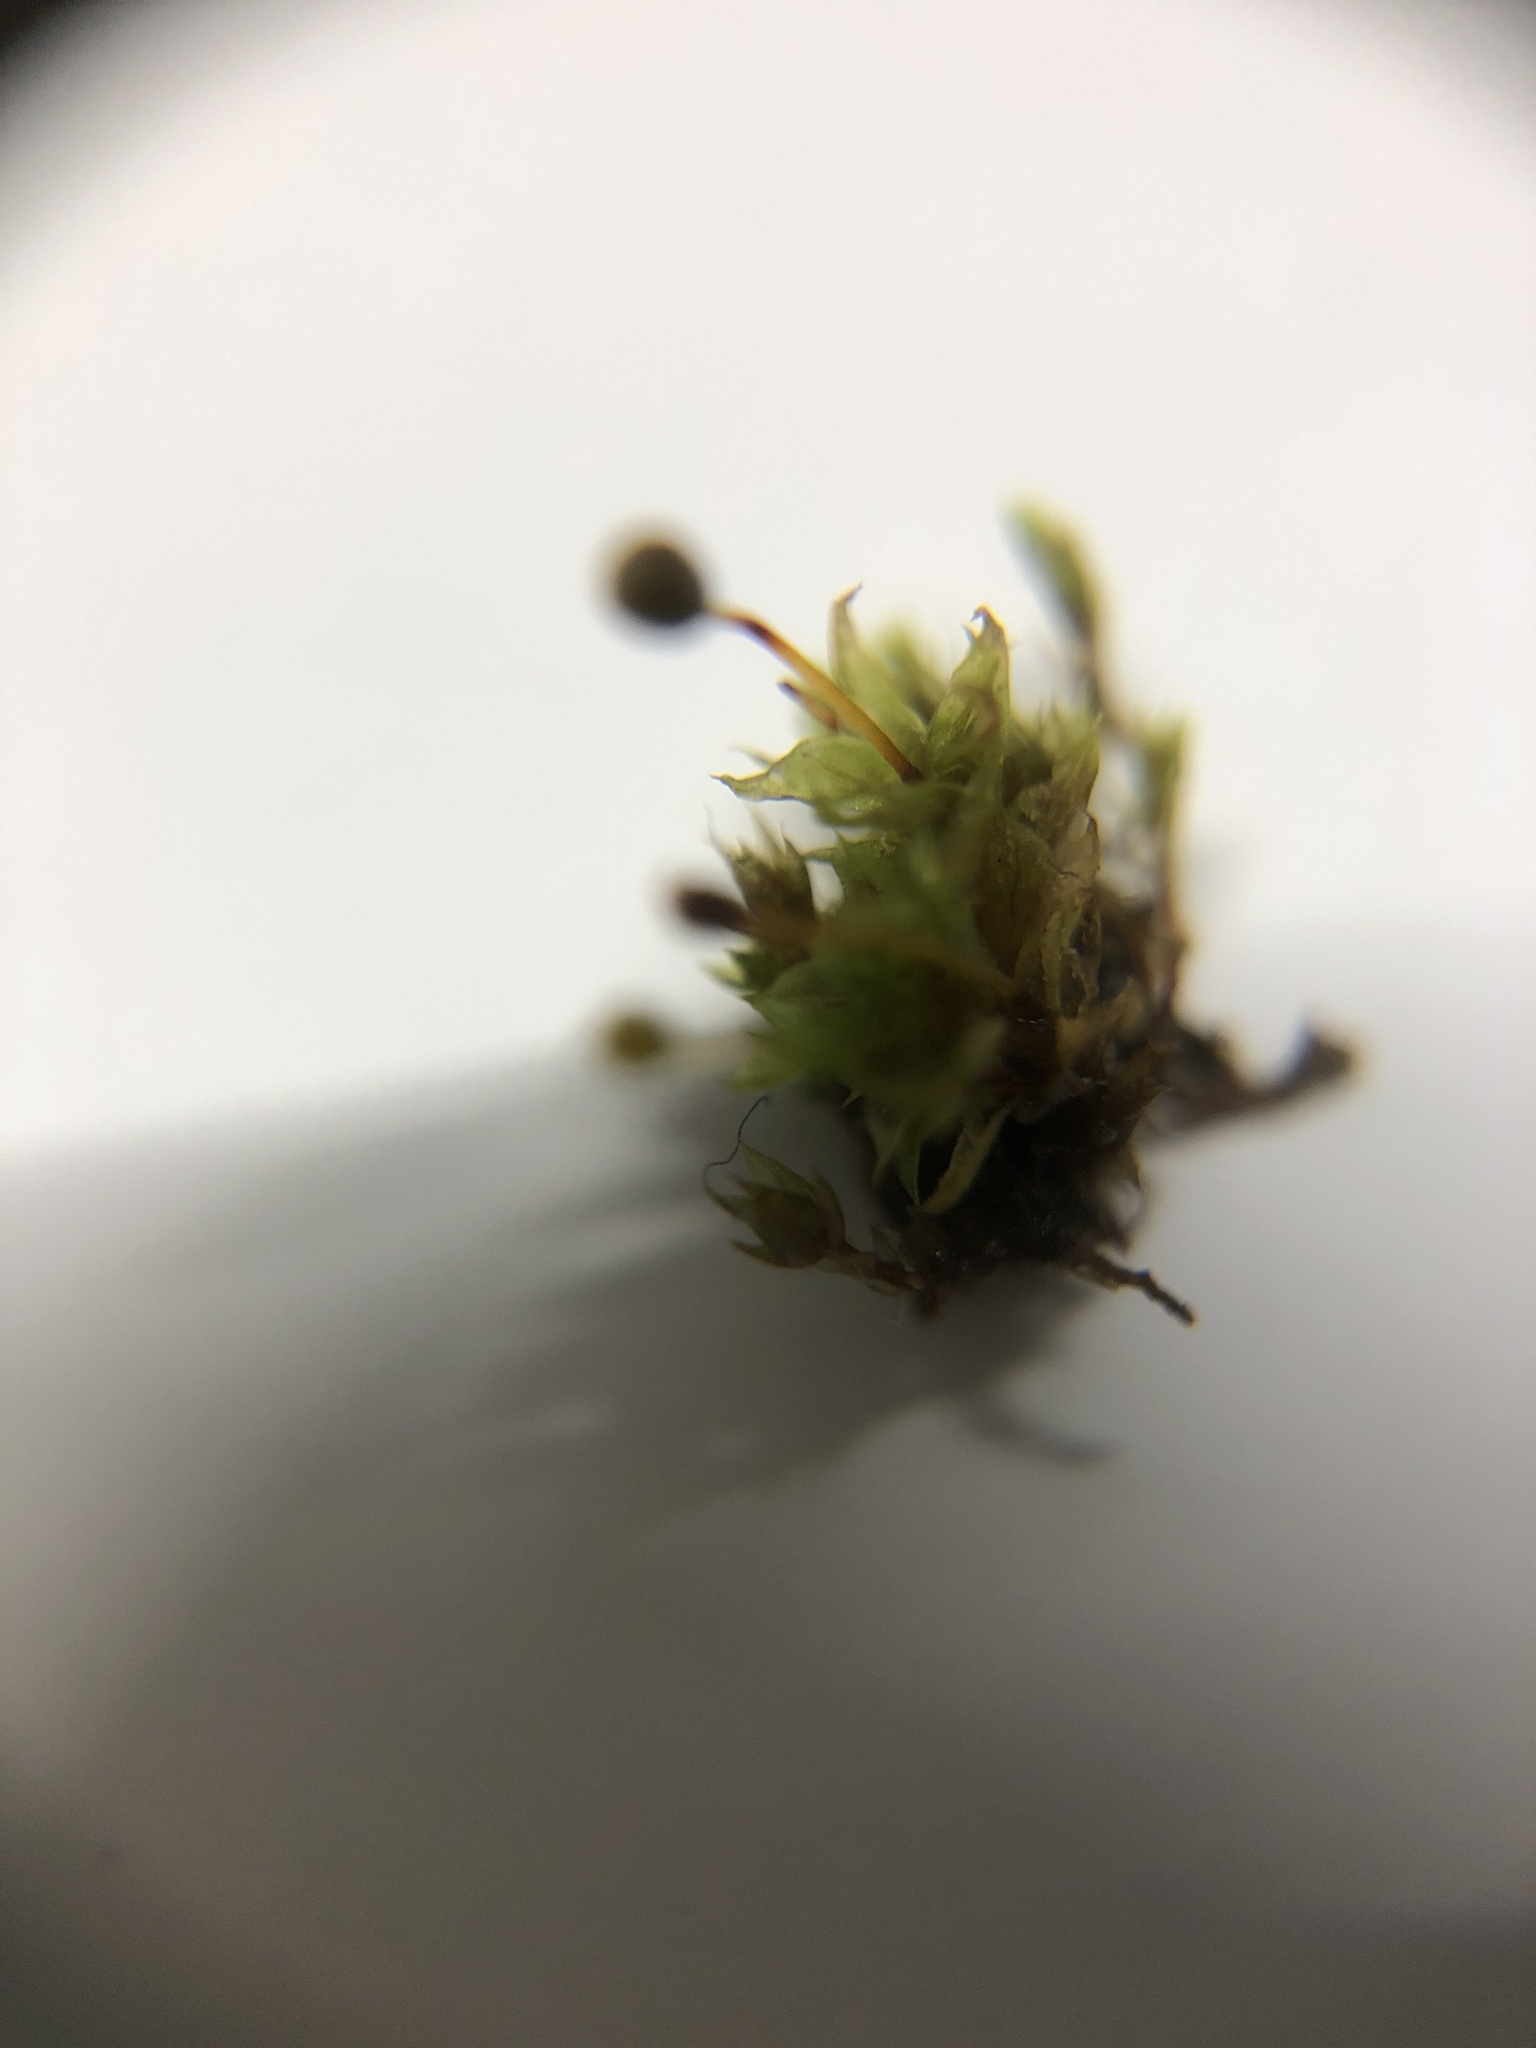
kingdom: Plantae
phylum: Bryophyta
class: Bryopsida
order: Pottiales
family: Pottiaceae
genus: Tortula
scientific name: Tortula truncata
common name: Truncated screw moss
